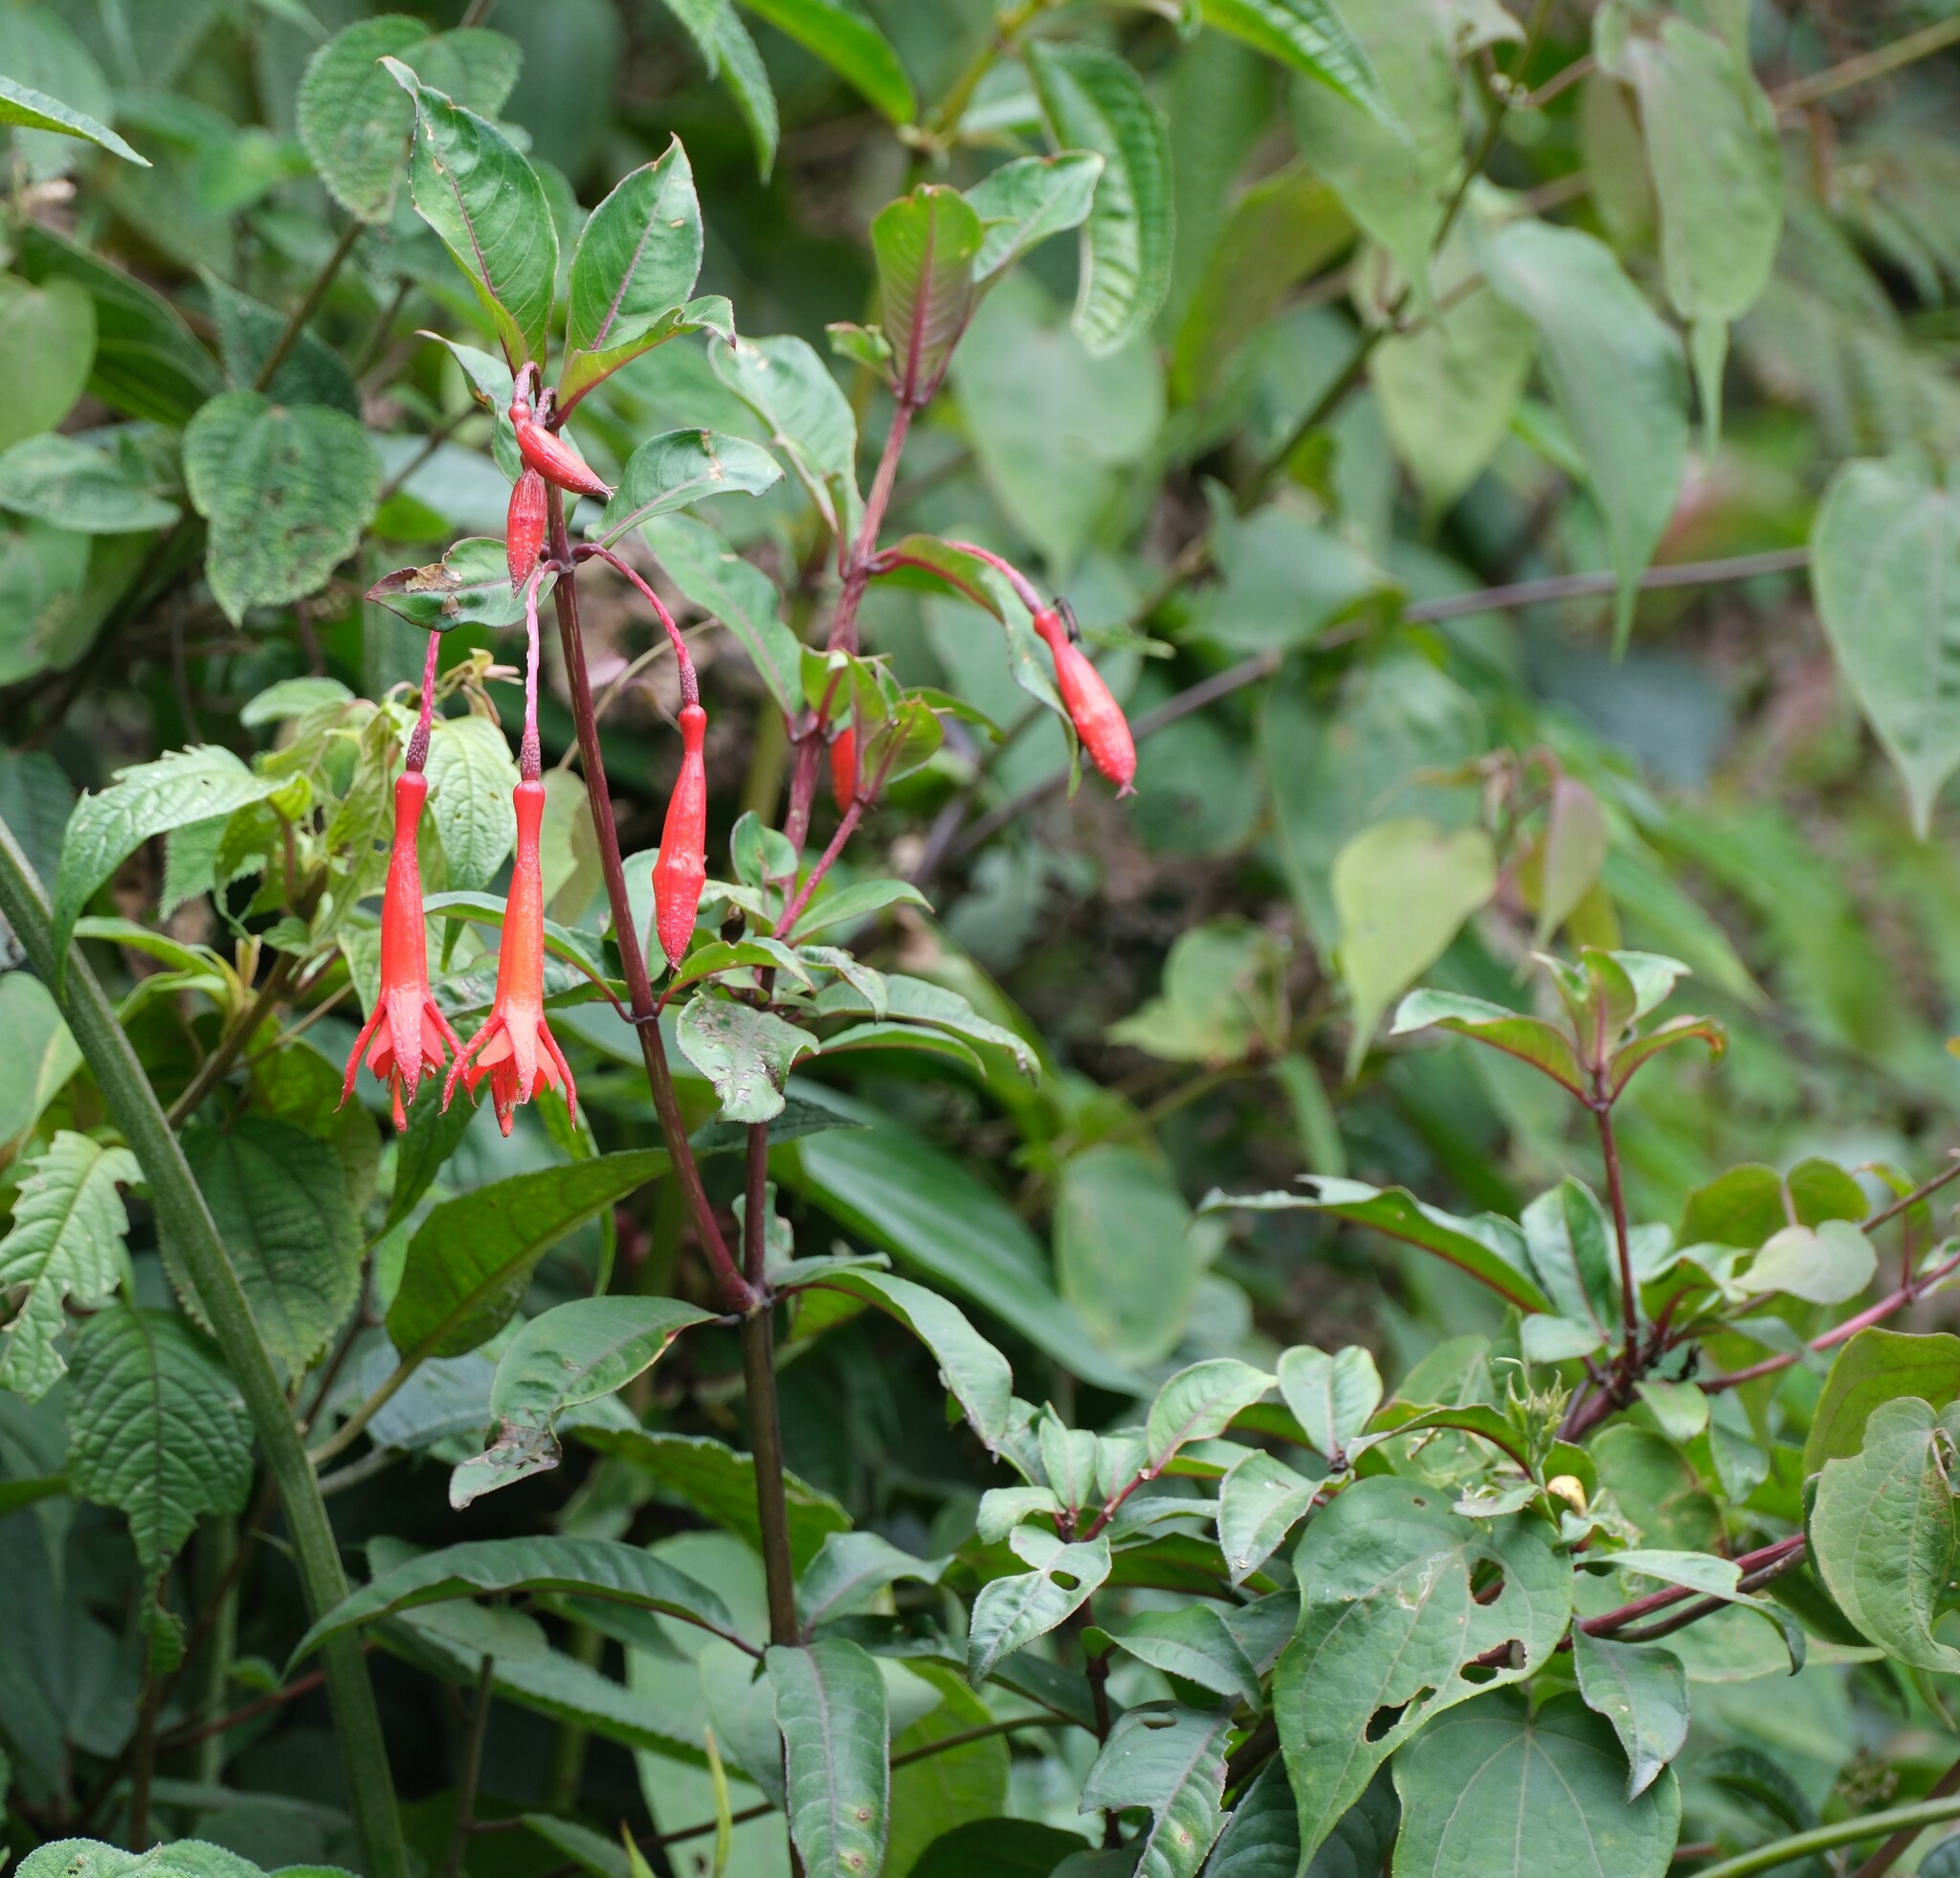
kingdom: Plantae
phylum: Tracheophyta
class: Magnoliopsida
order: Myrtales
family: Onagraceae
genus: Fuchsia
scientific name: Fuchsia boliviana
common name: Bolivian fuchsia
